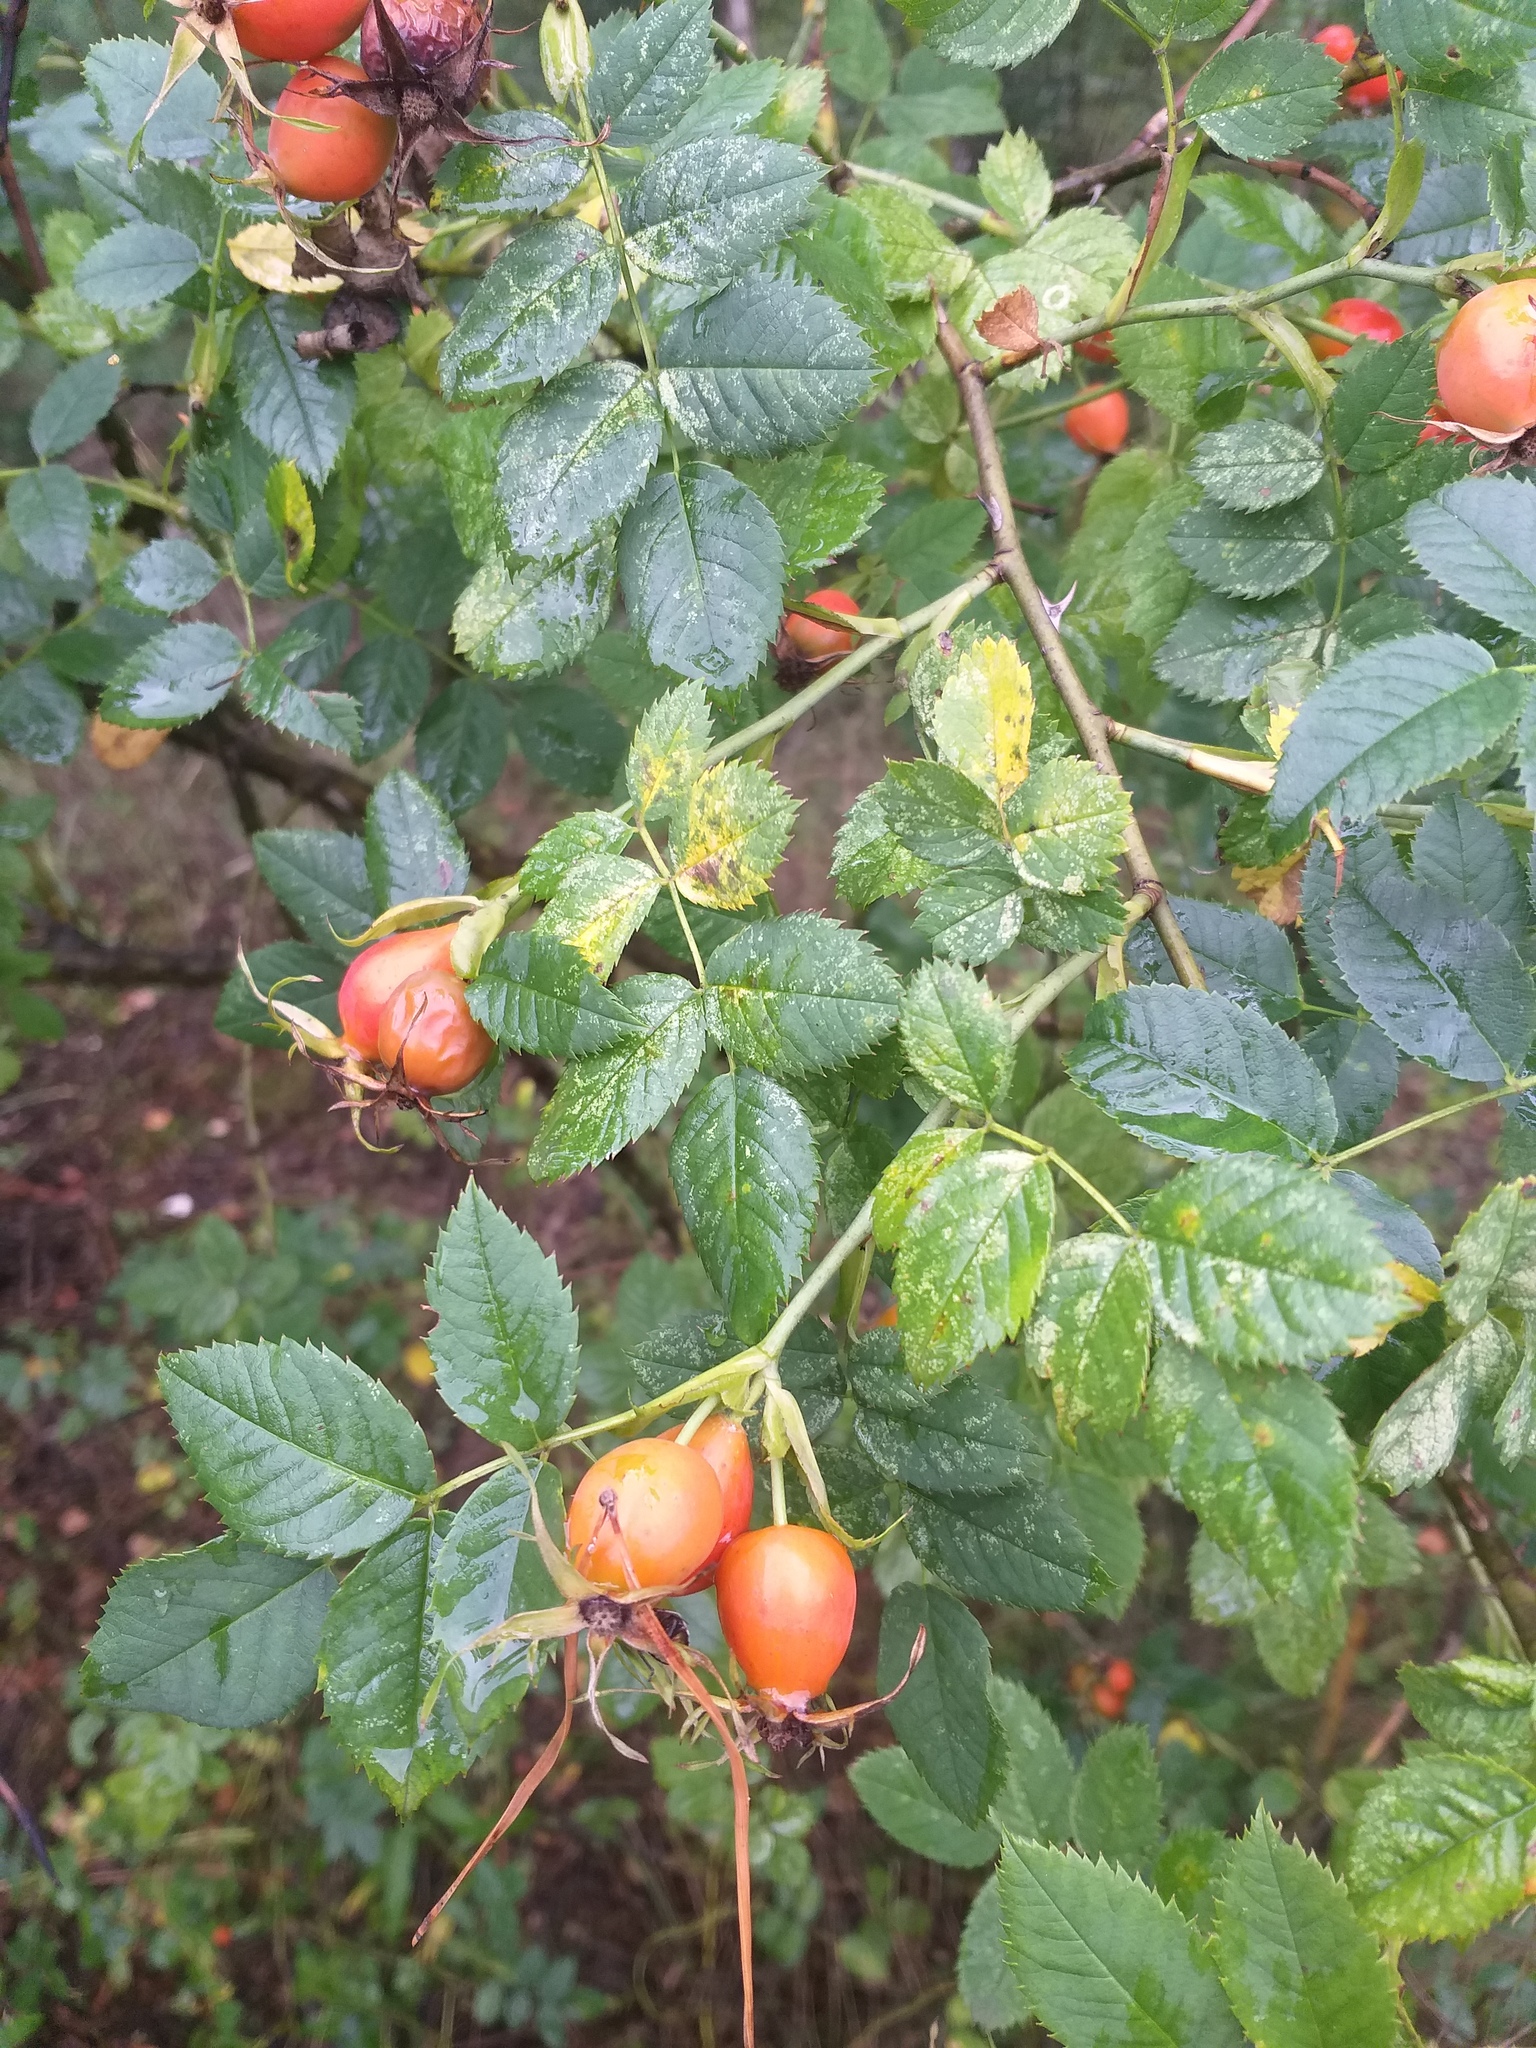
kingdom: Plantae
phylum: Tracheophyta
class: Magnoliopsida
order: Rosales
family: Rosaceae
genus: Rosa
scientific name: Rosa dumalis
